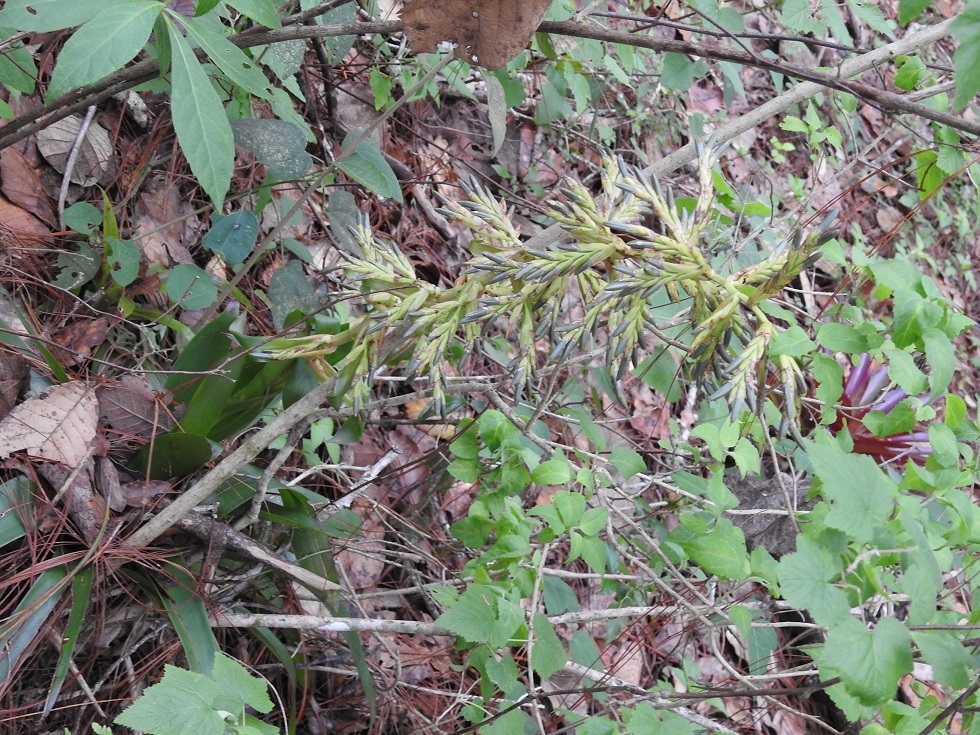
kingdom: Plantae
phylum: Tracheophyta
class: Liliopsida
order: Poales
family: Bromeliaceae
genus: Tillandsia
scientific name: Tillandsia guatemalensis
